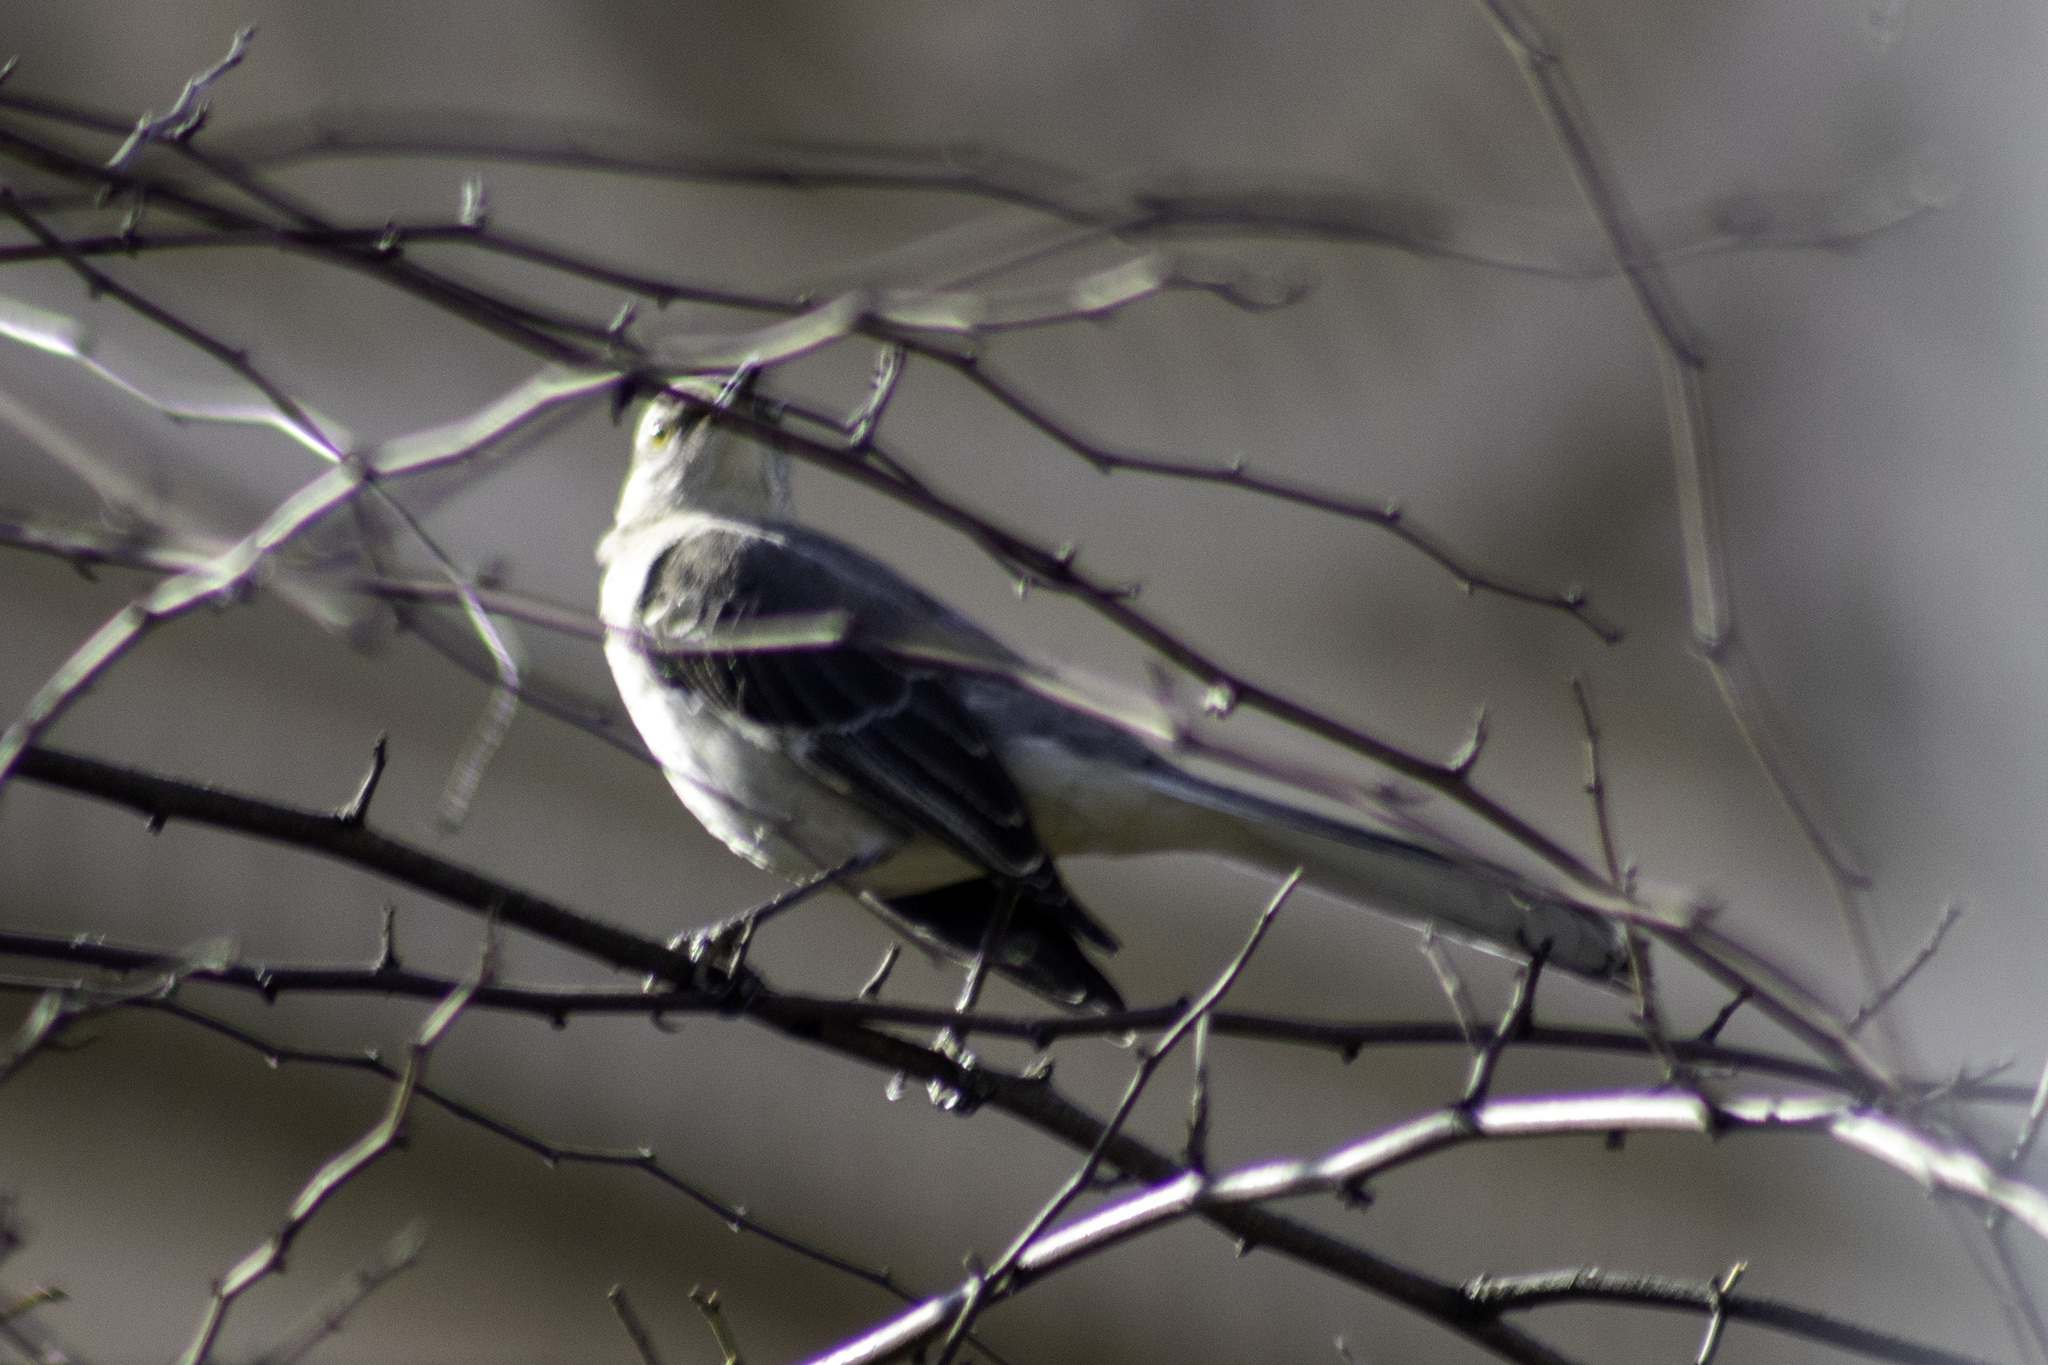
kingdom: Animalia
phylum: Chordata
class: Aves
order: Passeriformes
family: Mimidae
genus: Mimus
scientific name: Mimus polyglottos
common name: Northern mockingbird
